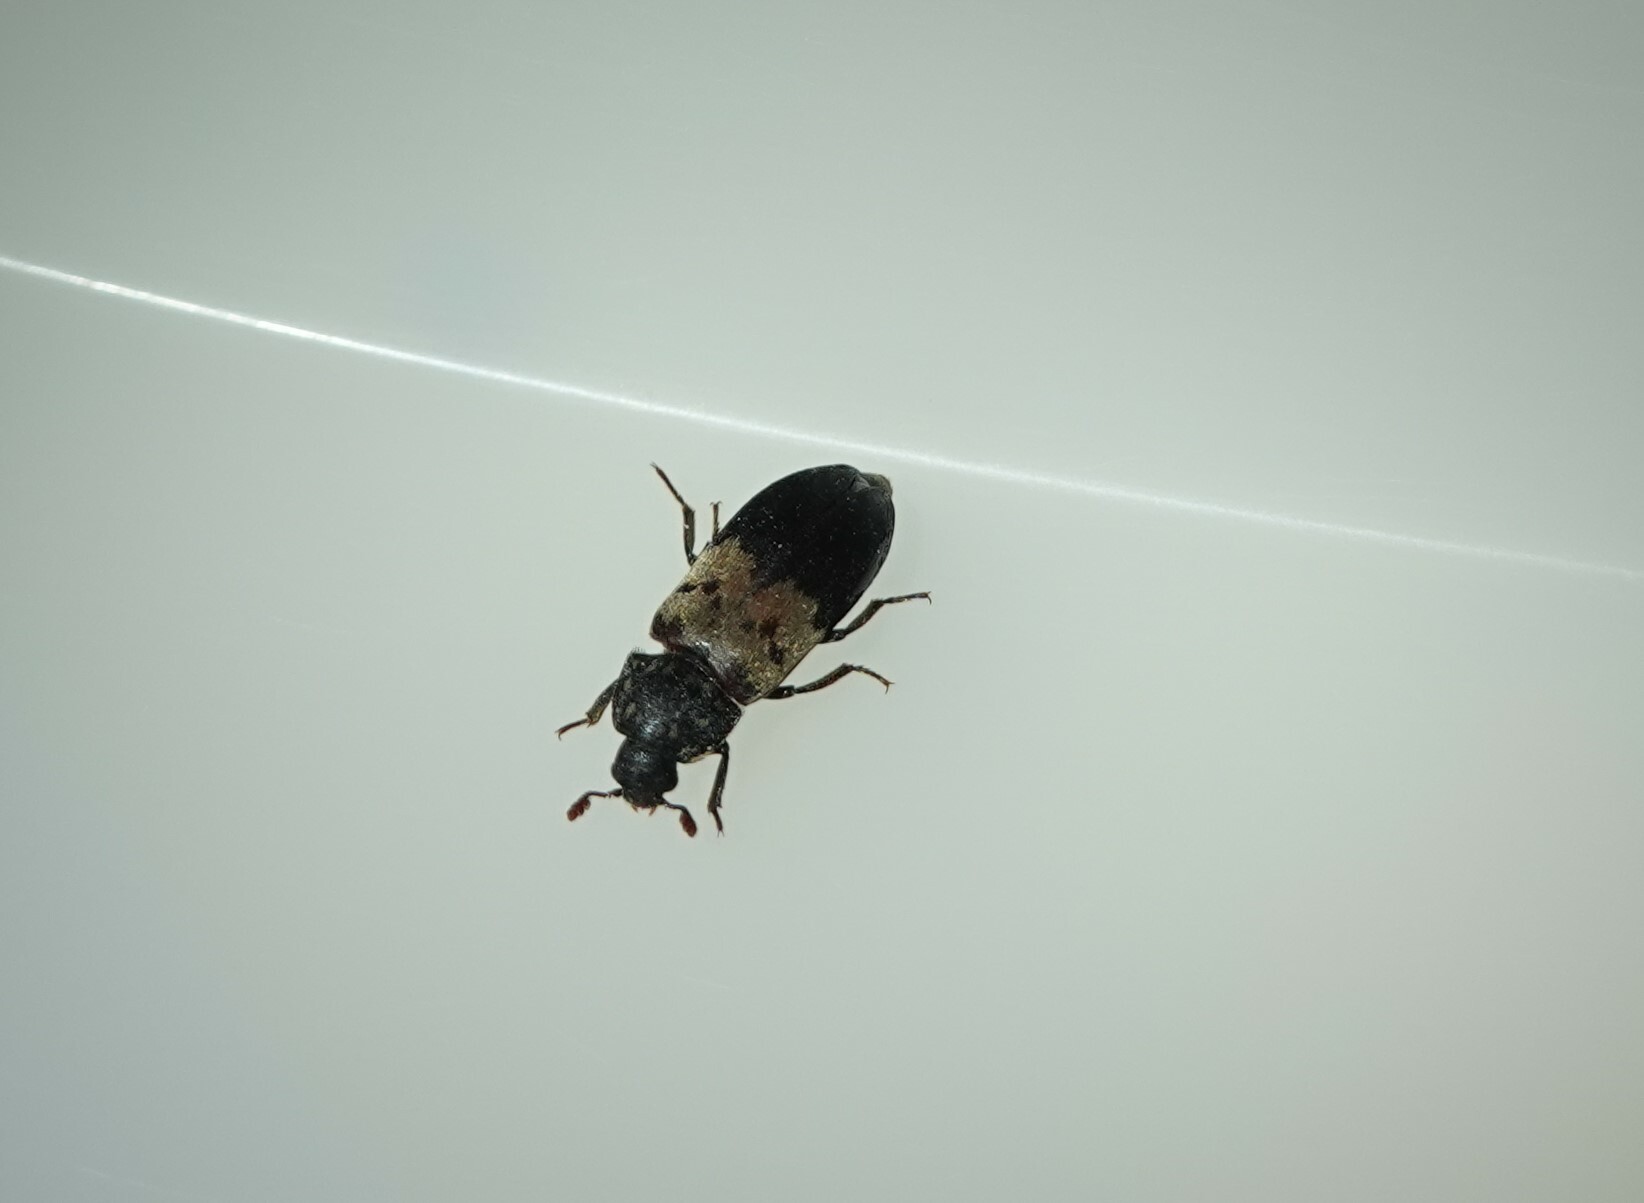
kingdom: Animalia
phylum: Arthropoda
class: Insecta
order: Coleoptera
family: Dermestidae
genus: Dermestes
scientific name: Dermestes lardarius
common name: Larder beetle
